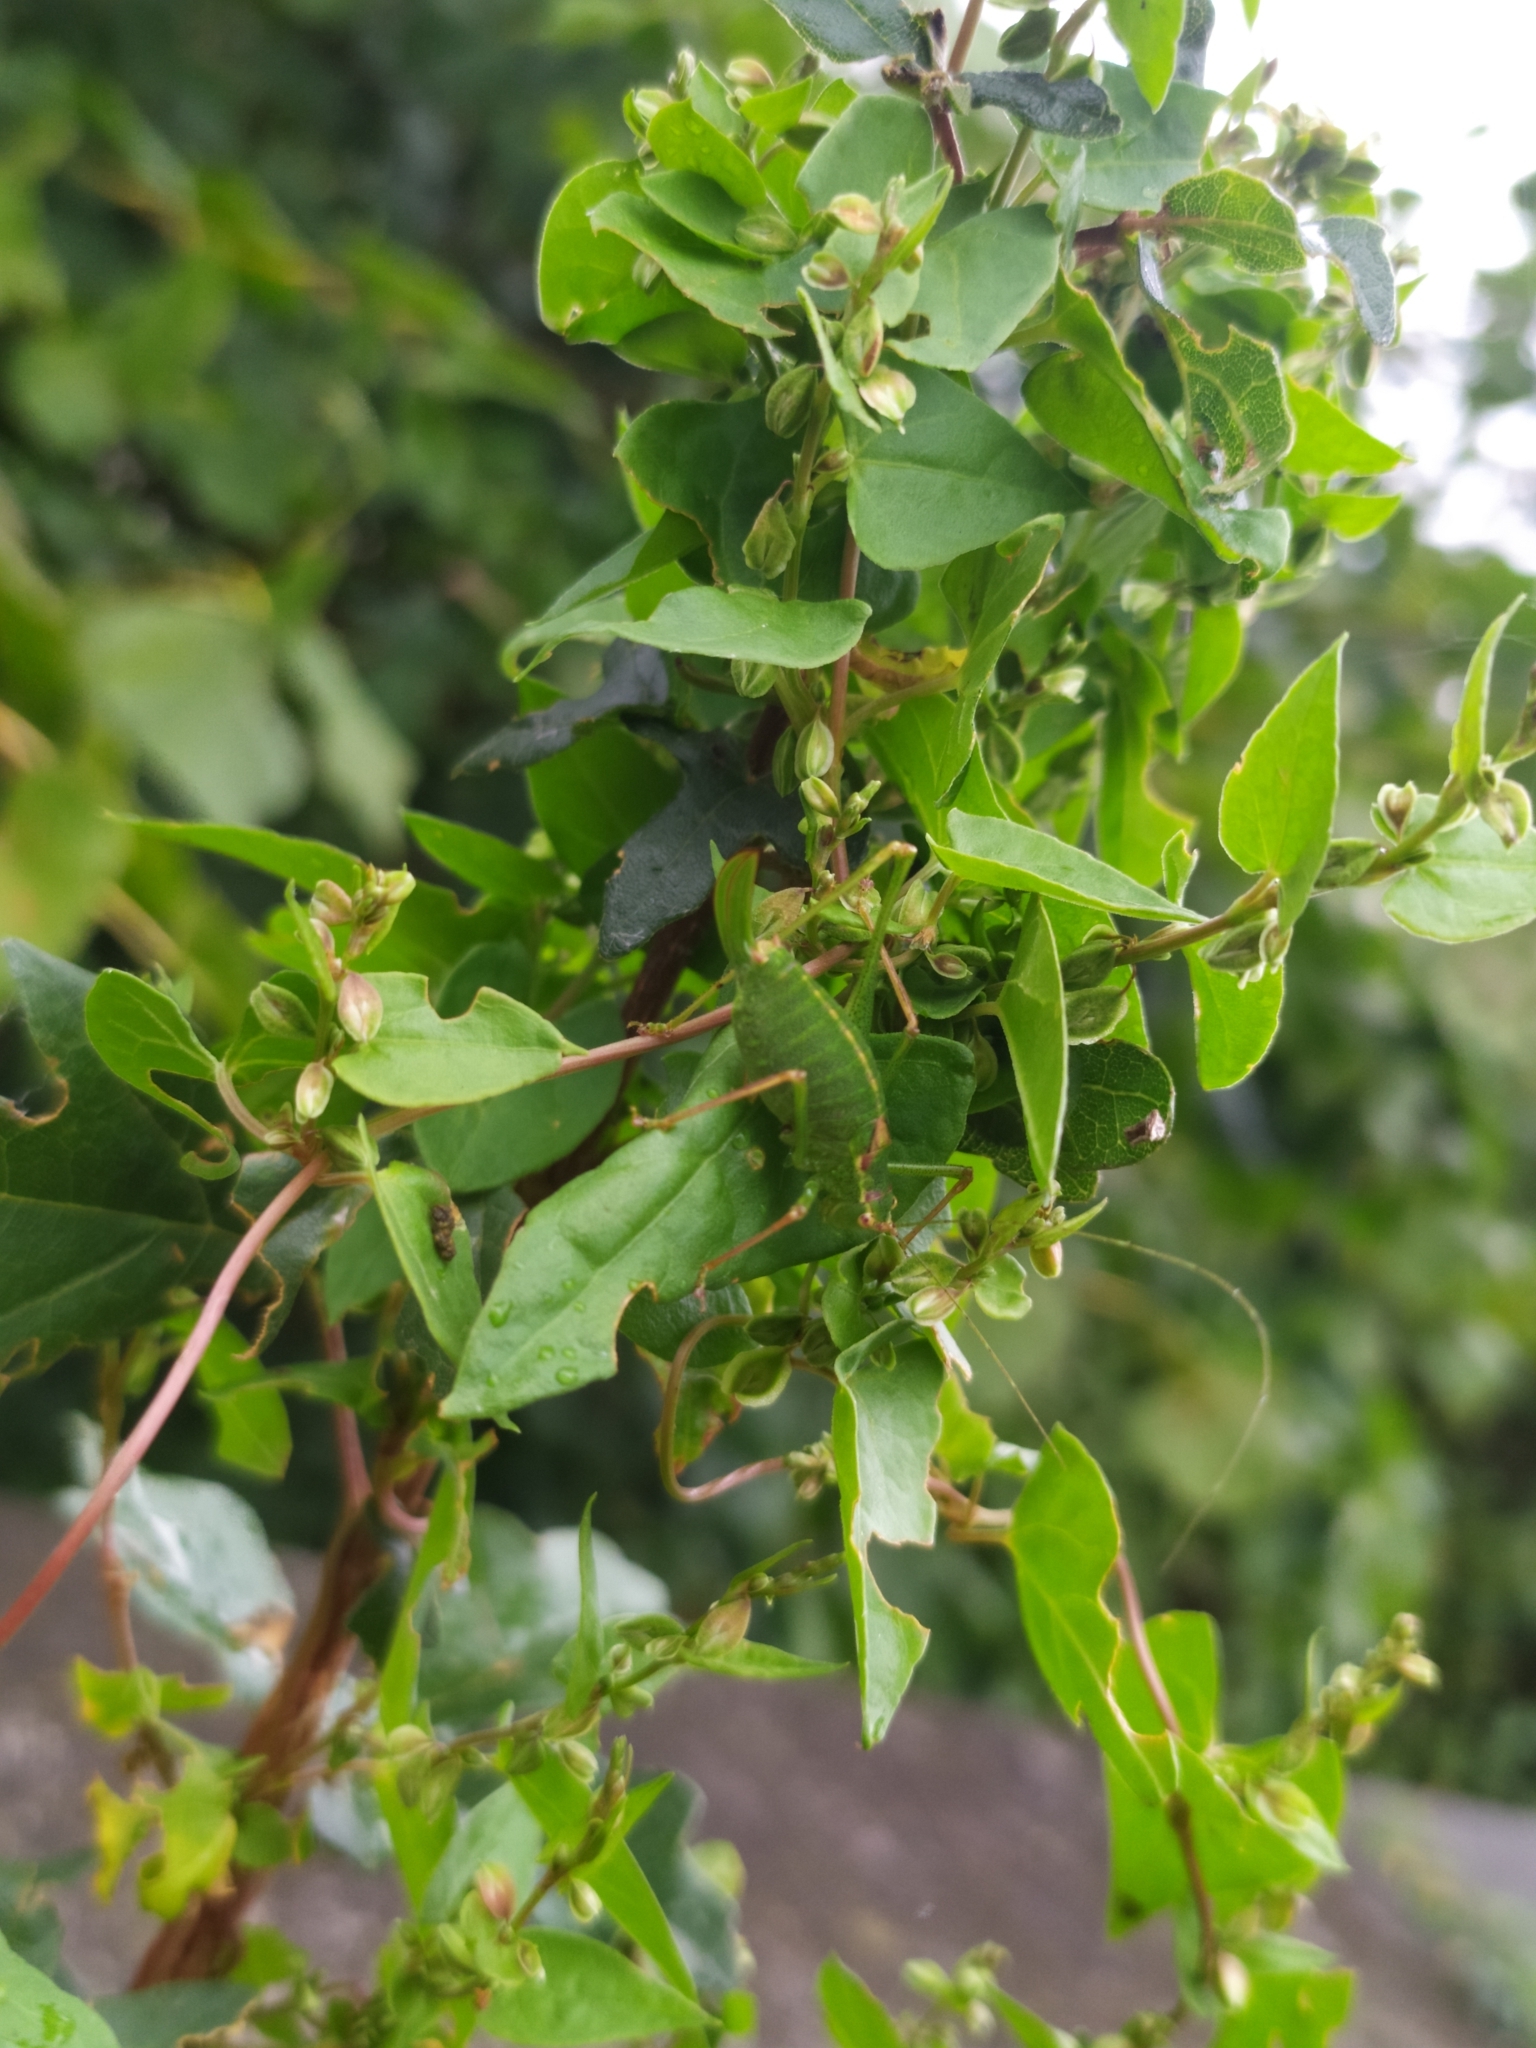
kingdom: Animalia
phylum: Arthropoda
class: Insecta
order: Orthoptera
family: Tettigoniidae
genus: Leptophyes
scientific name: Leptophyes punctatissima
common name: Speckled bush-cricket
